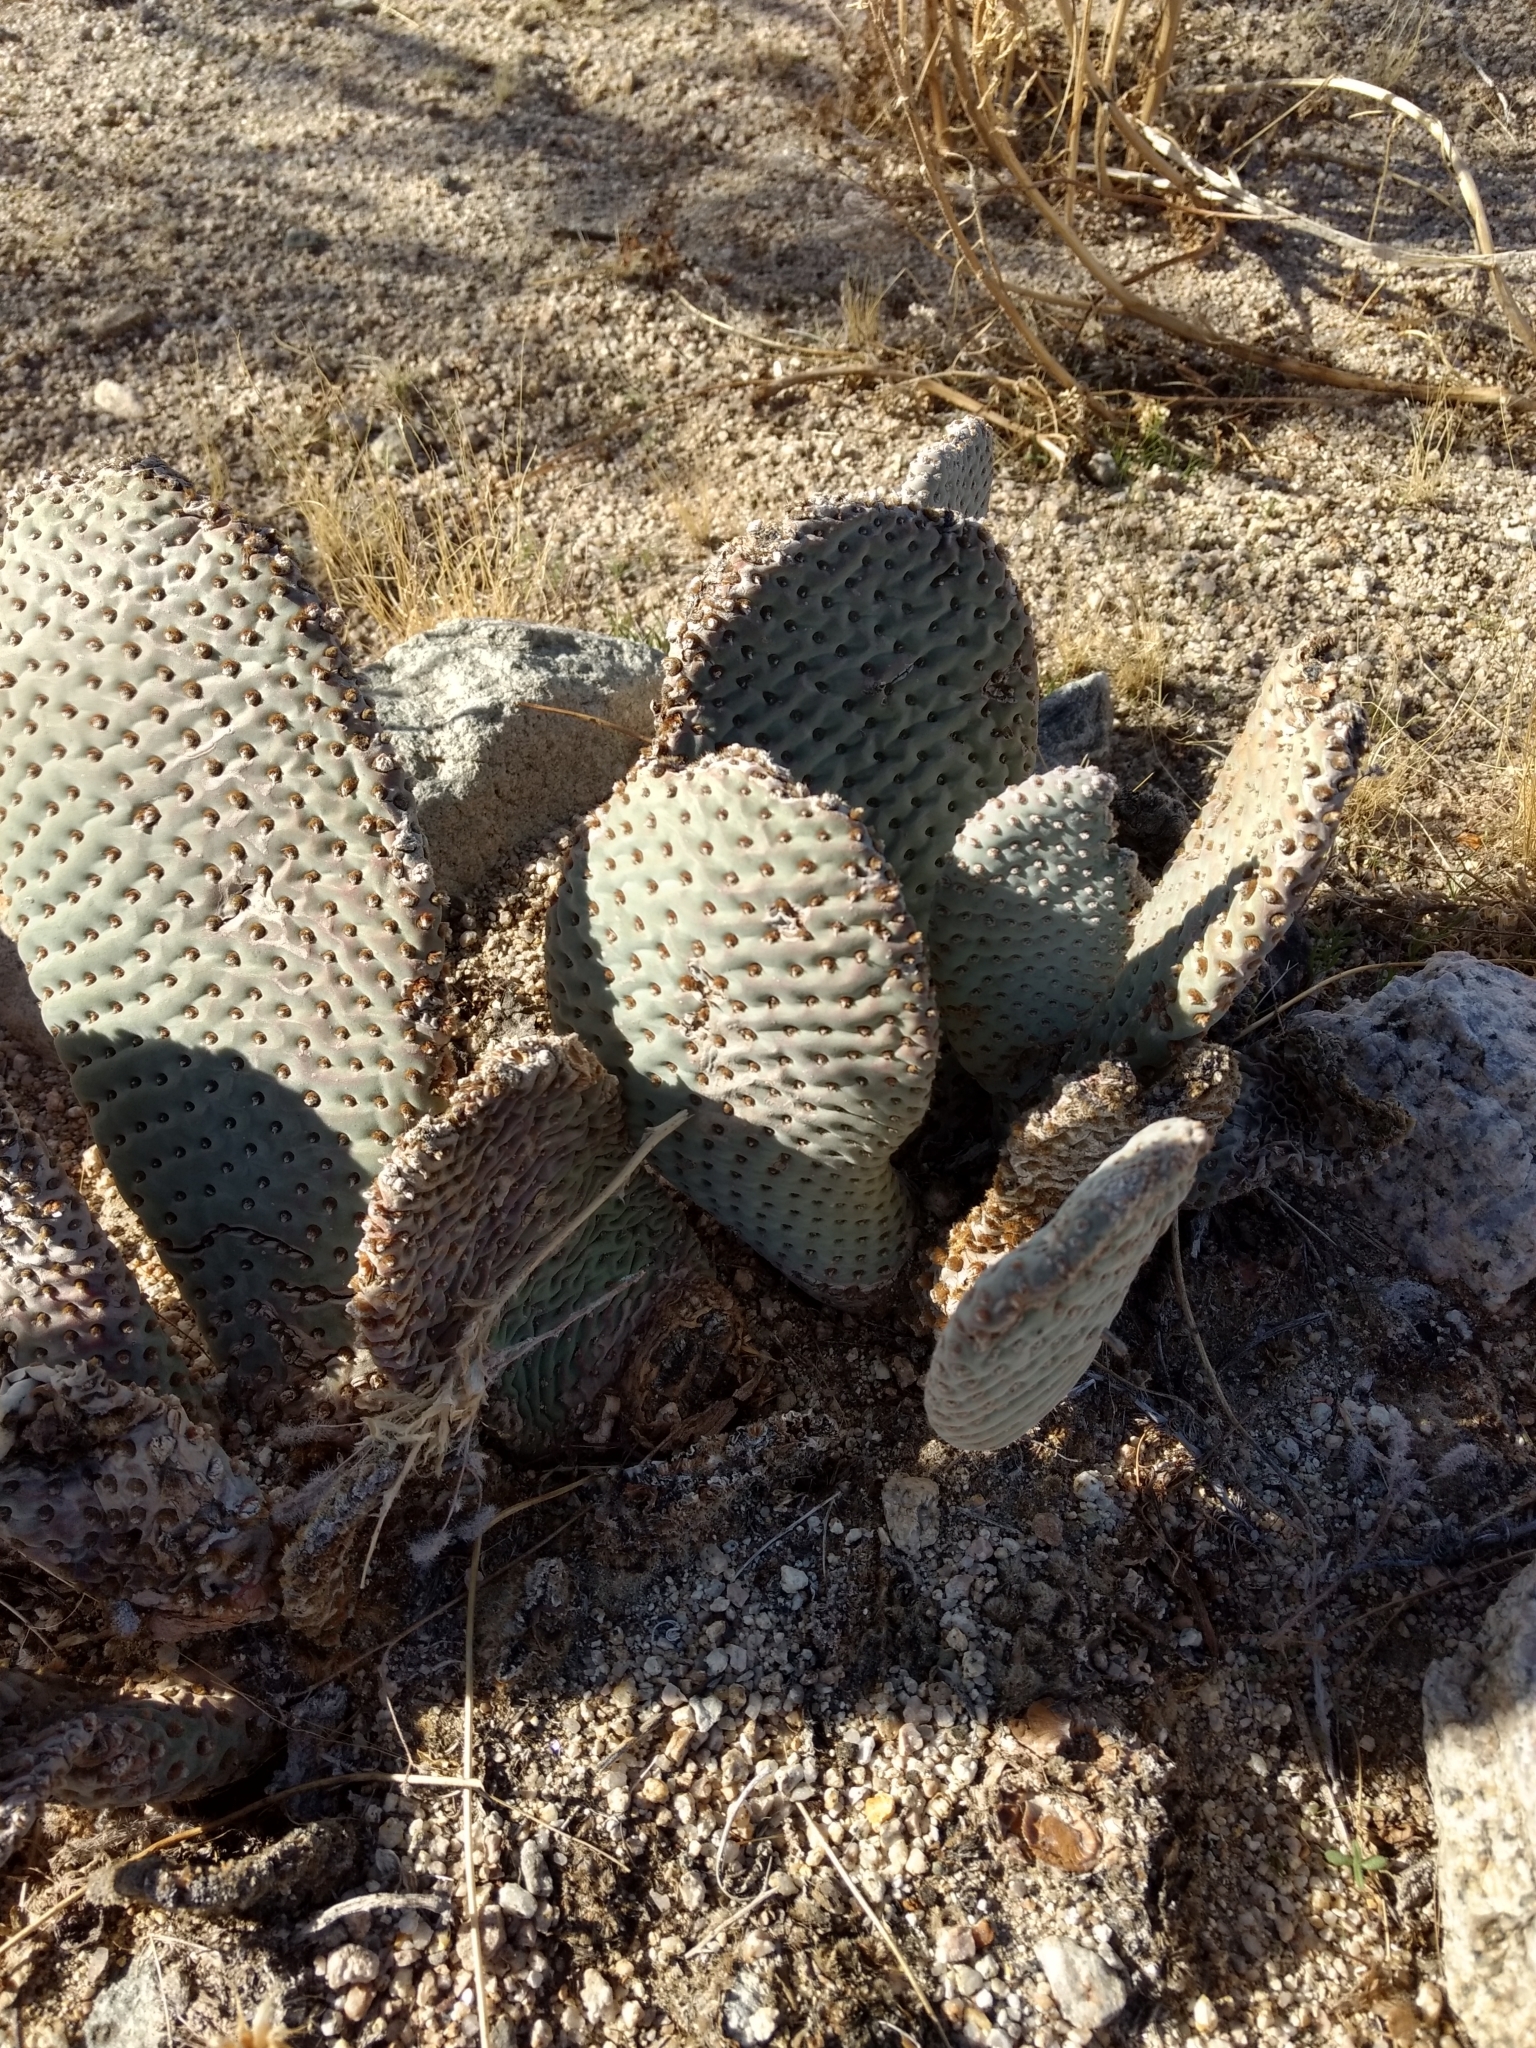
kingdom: Plantae
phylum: Tracheophyta
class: Magnoliopsida
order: Caryophyllales
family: Cactaceae
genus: Opuntia
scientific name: Opuntia basilaris
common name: Beavertail prickly-pear
